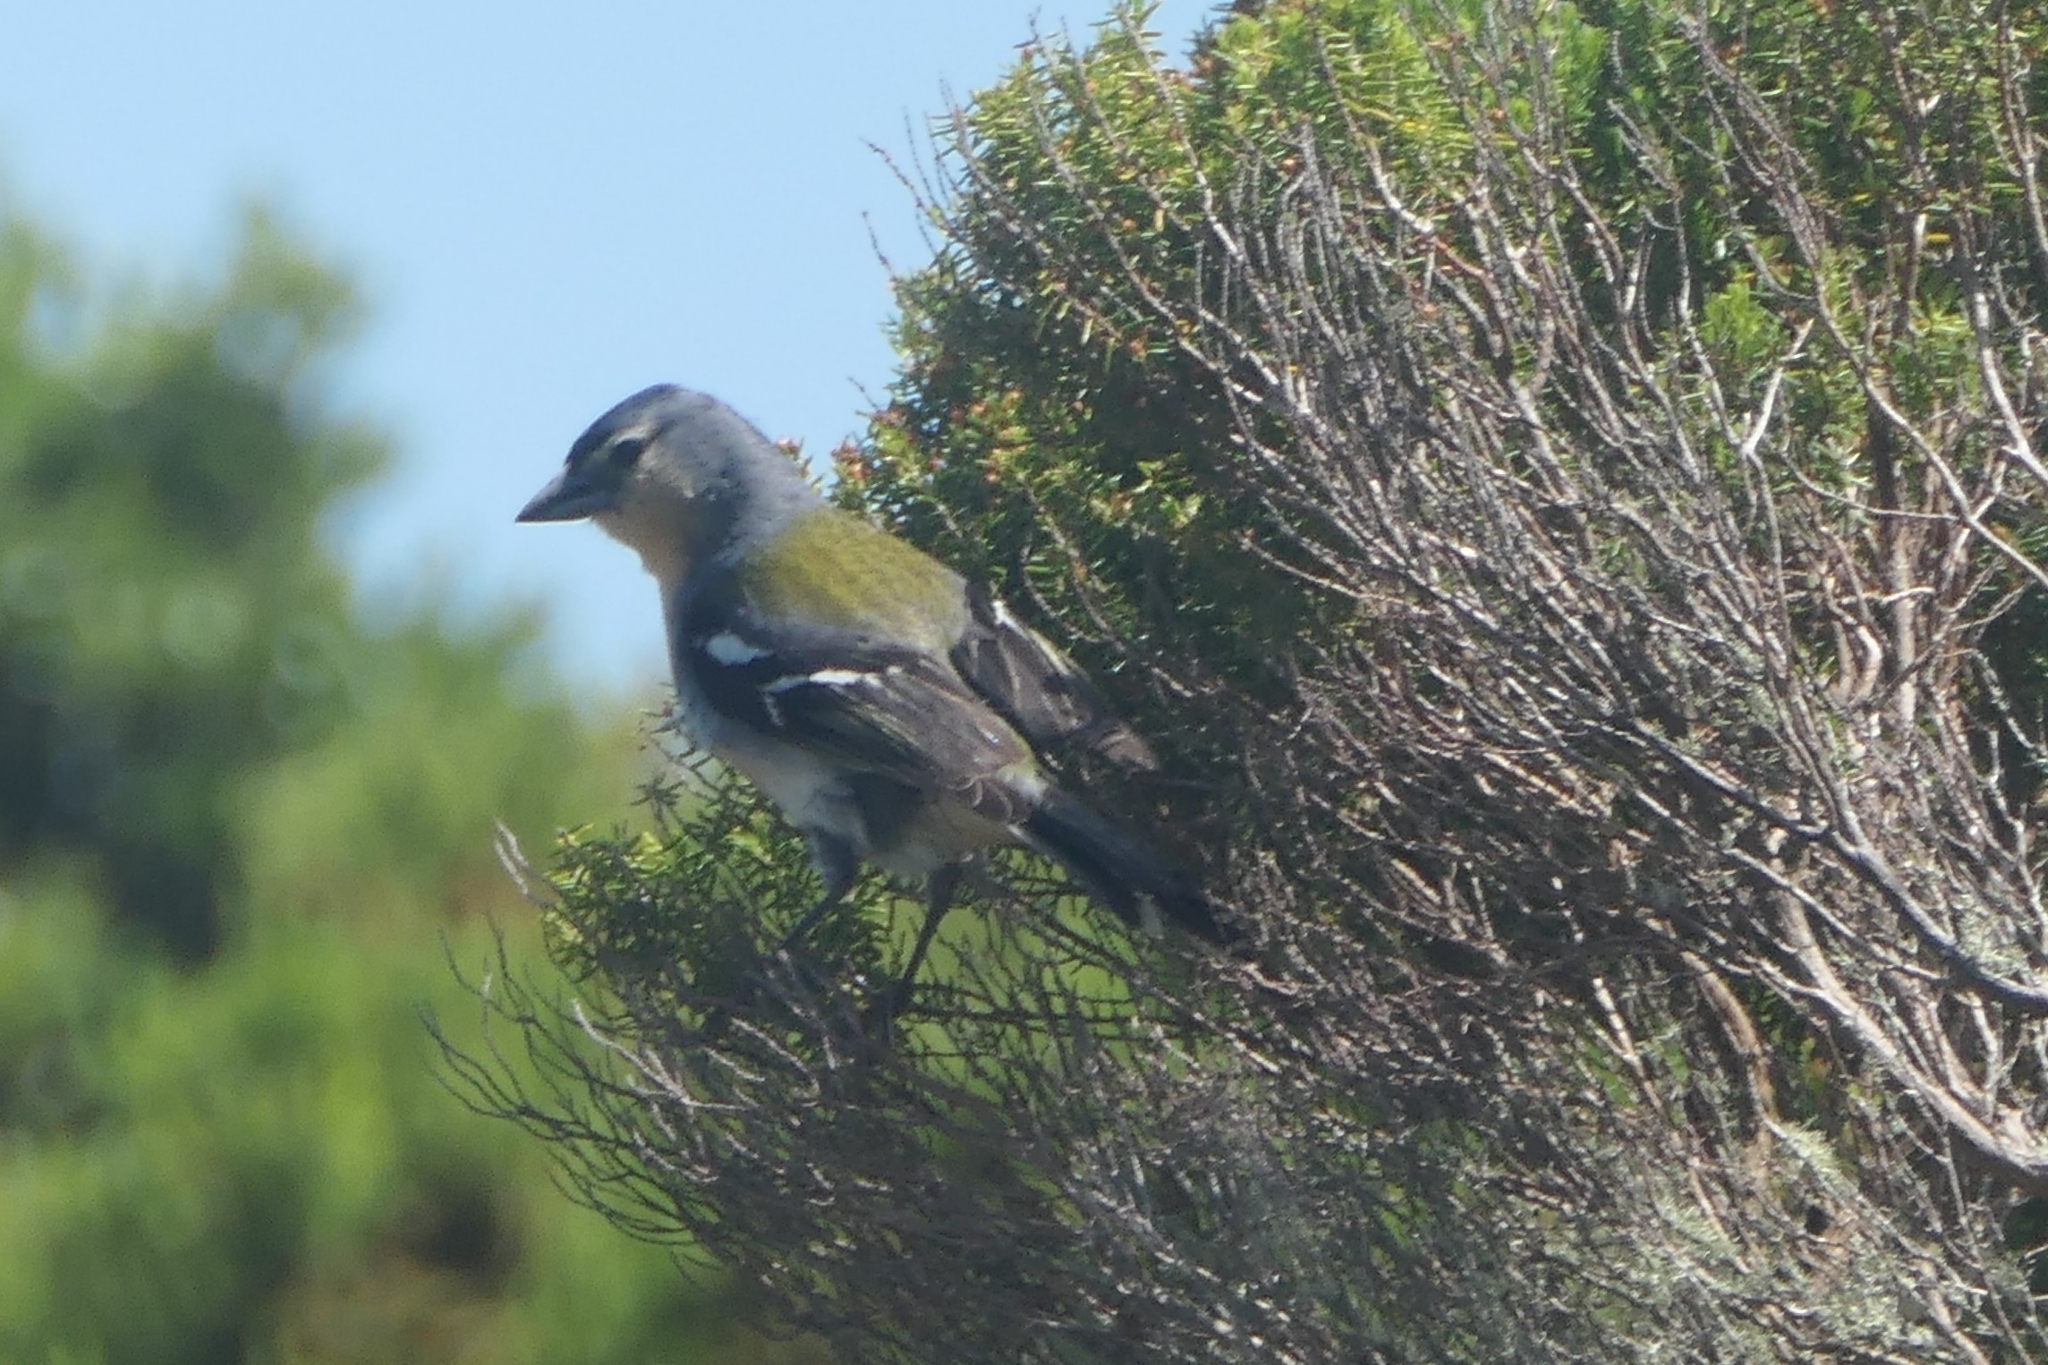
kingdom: Animalia
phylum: Chordata
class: Aves
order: Passeriformes
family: Fringillidae
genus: Fringilla
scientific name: Fringilla moreletti
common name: Azores chaffinch
